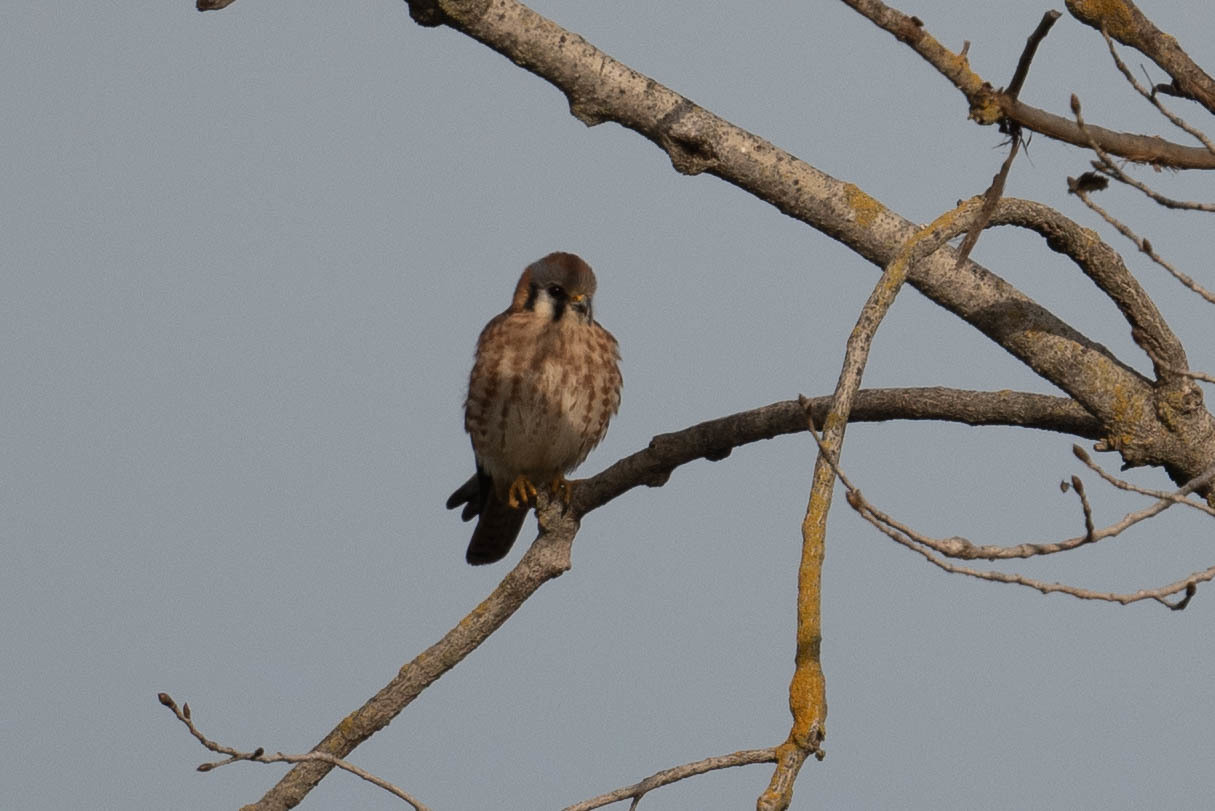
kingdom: Animalia
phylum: Chordata
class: Aves
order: Falconiformes
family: Falconidae
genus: Falco
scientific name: Falco sparverius
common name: American kestrel
